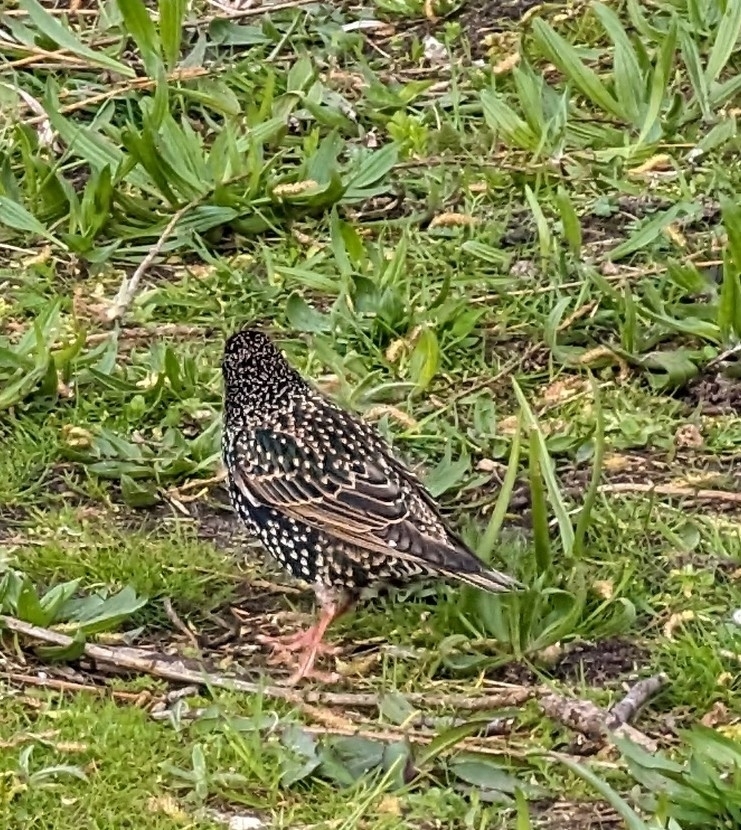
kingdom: Animalia
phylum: Chordata
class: Aves
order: Passeriformes
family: Sturnidae
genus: Sturnus
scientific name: Sturnus vulgaris
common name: Common starling
